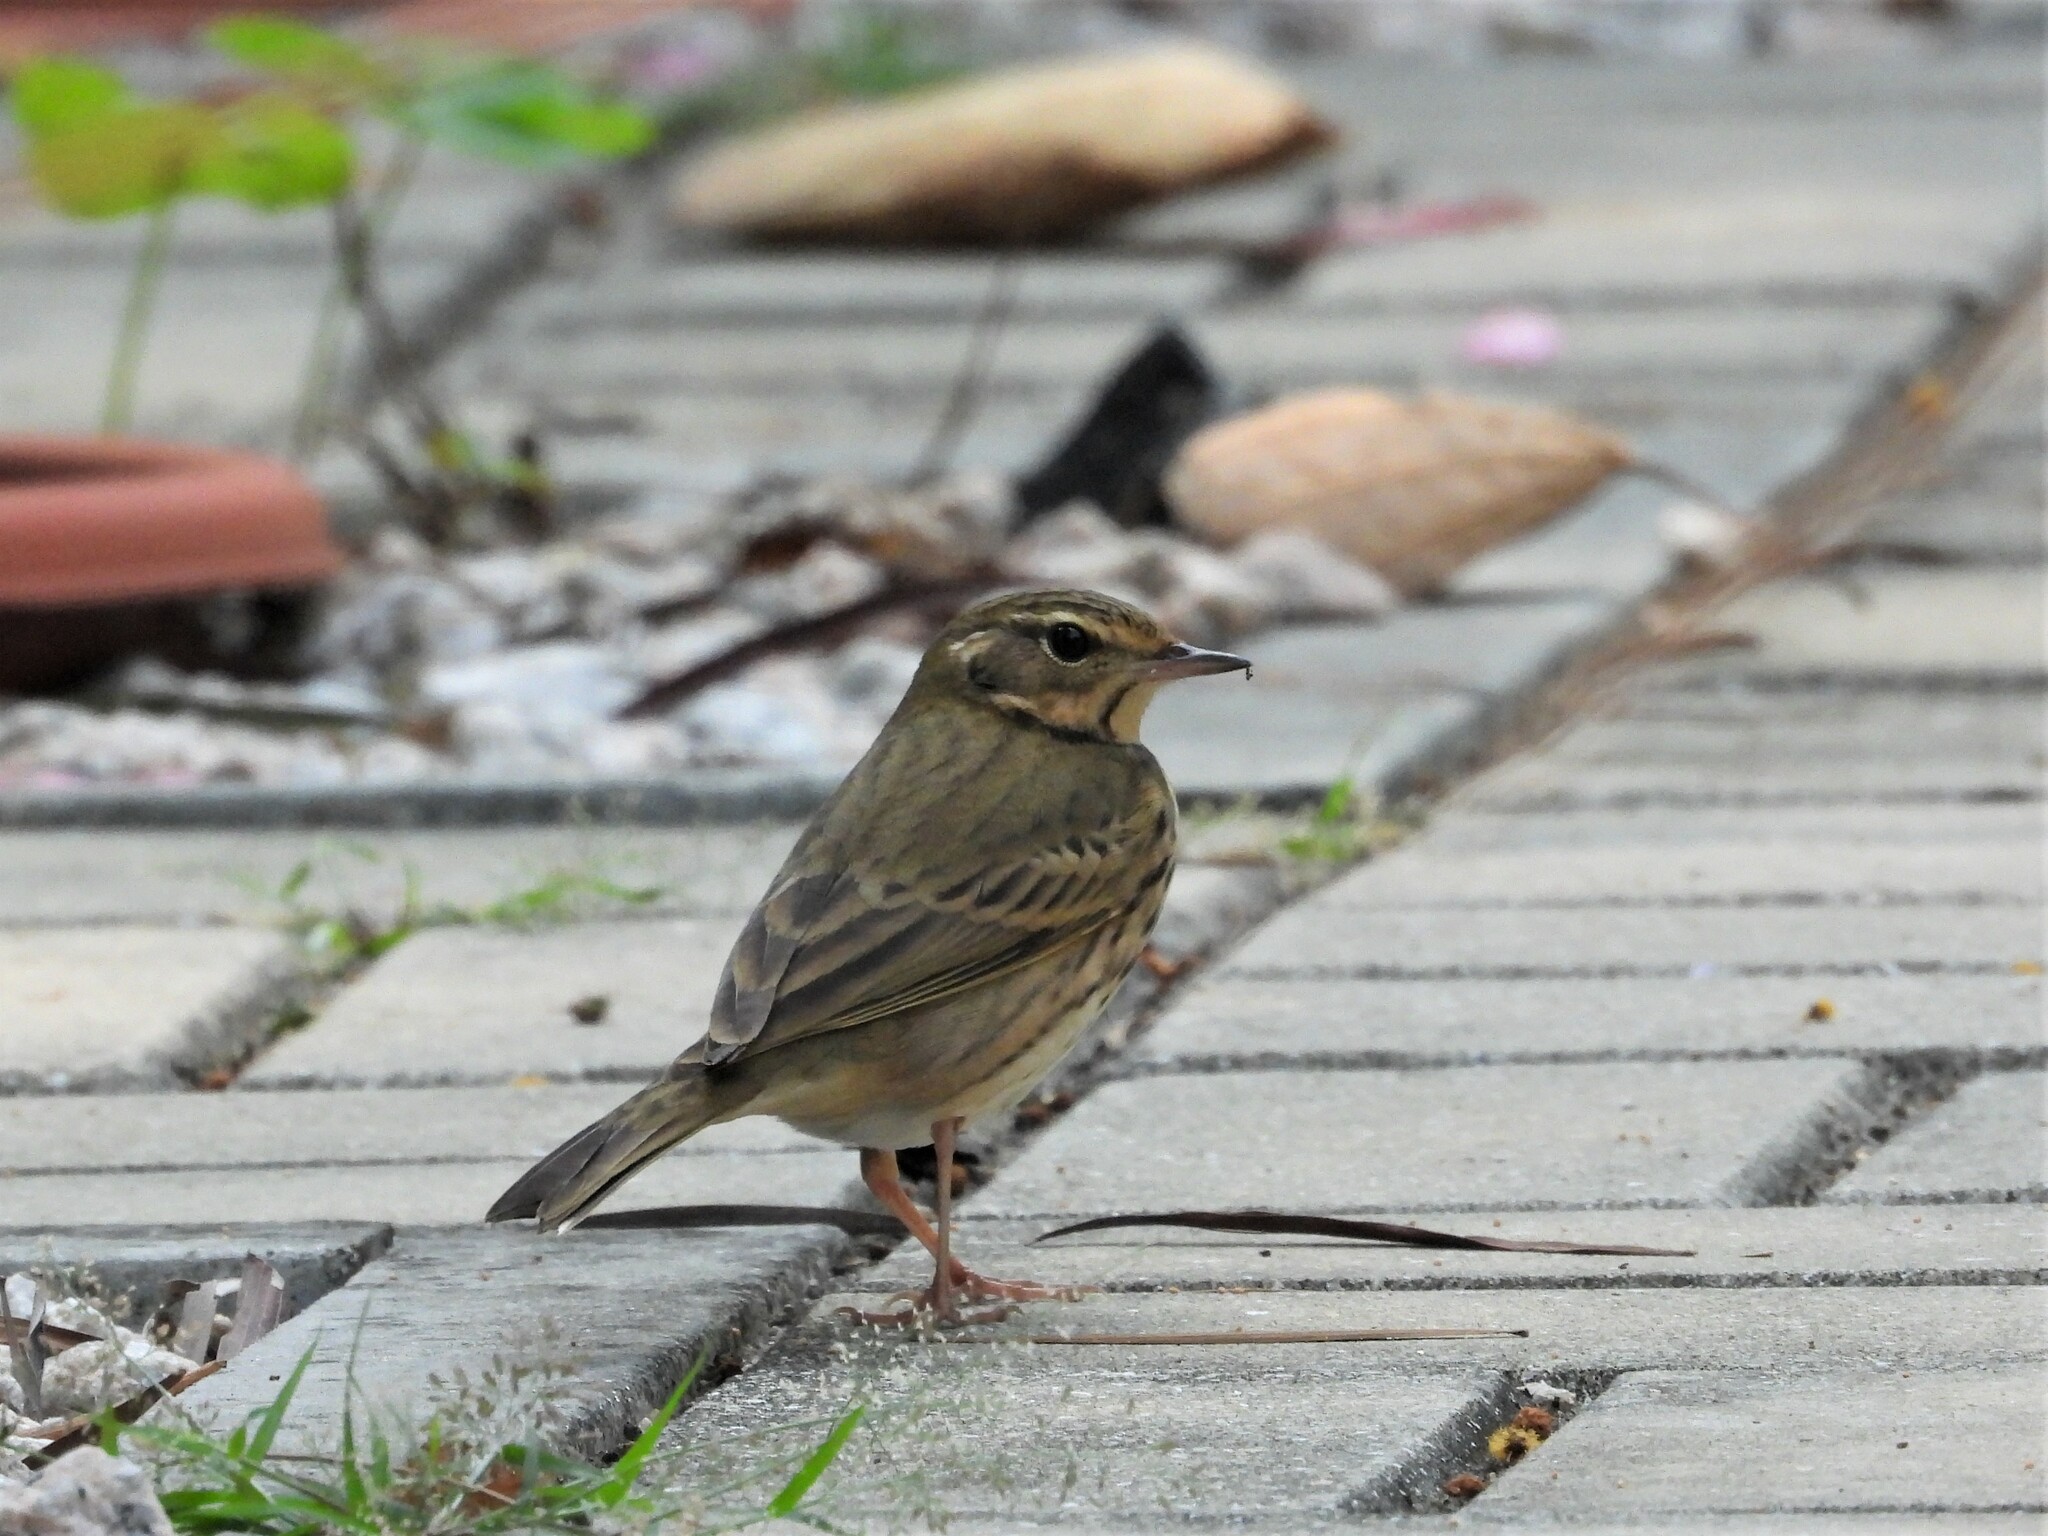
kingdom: Animalia
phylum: Chordata
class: Aves
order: Passeriformes
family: Motacillidae
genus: Anthus
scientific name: Anthus hodgsoni
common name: Olive-backed pipit
